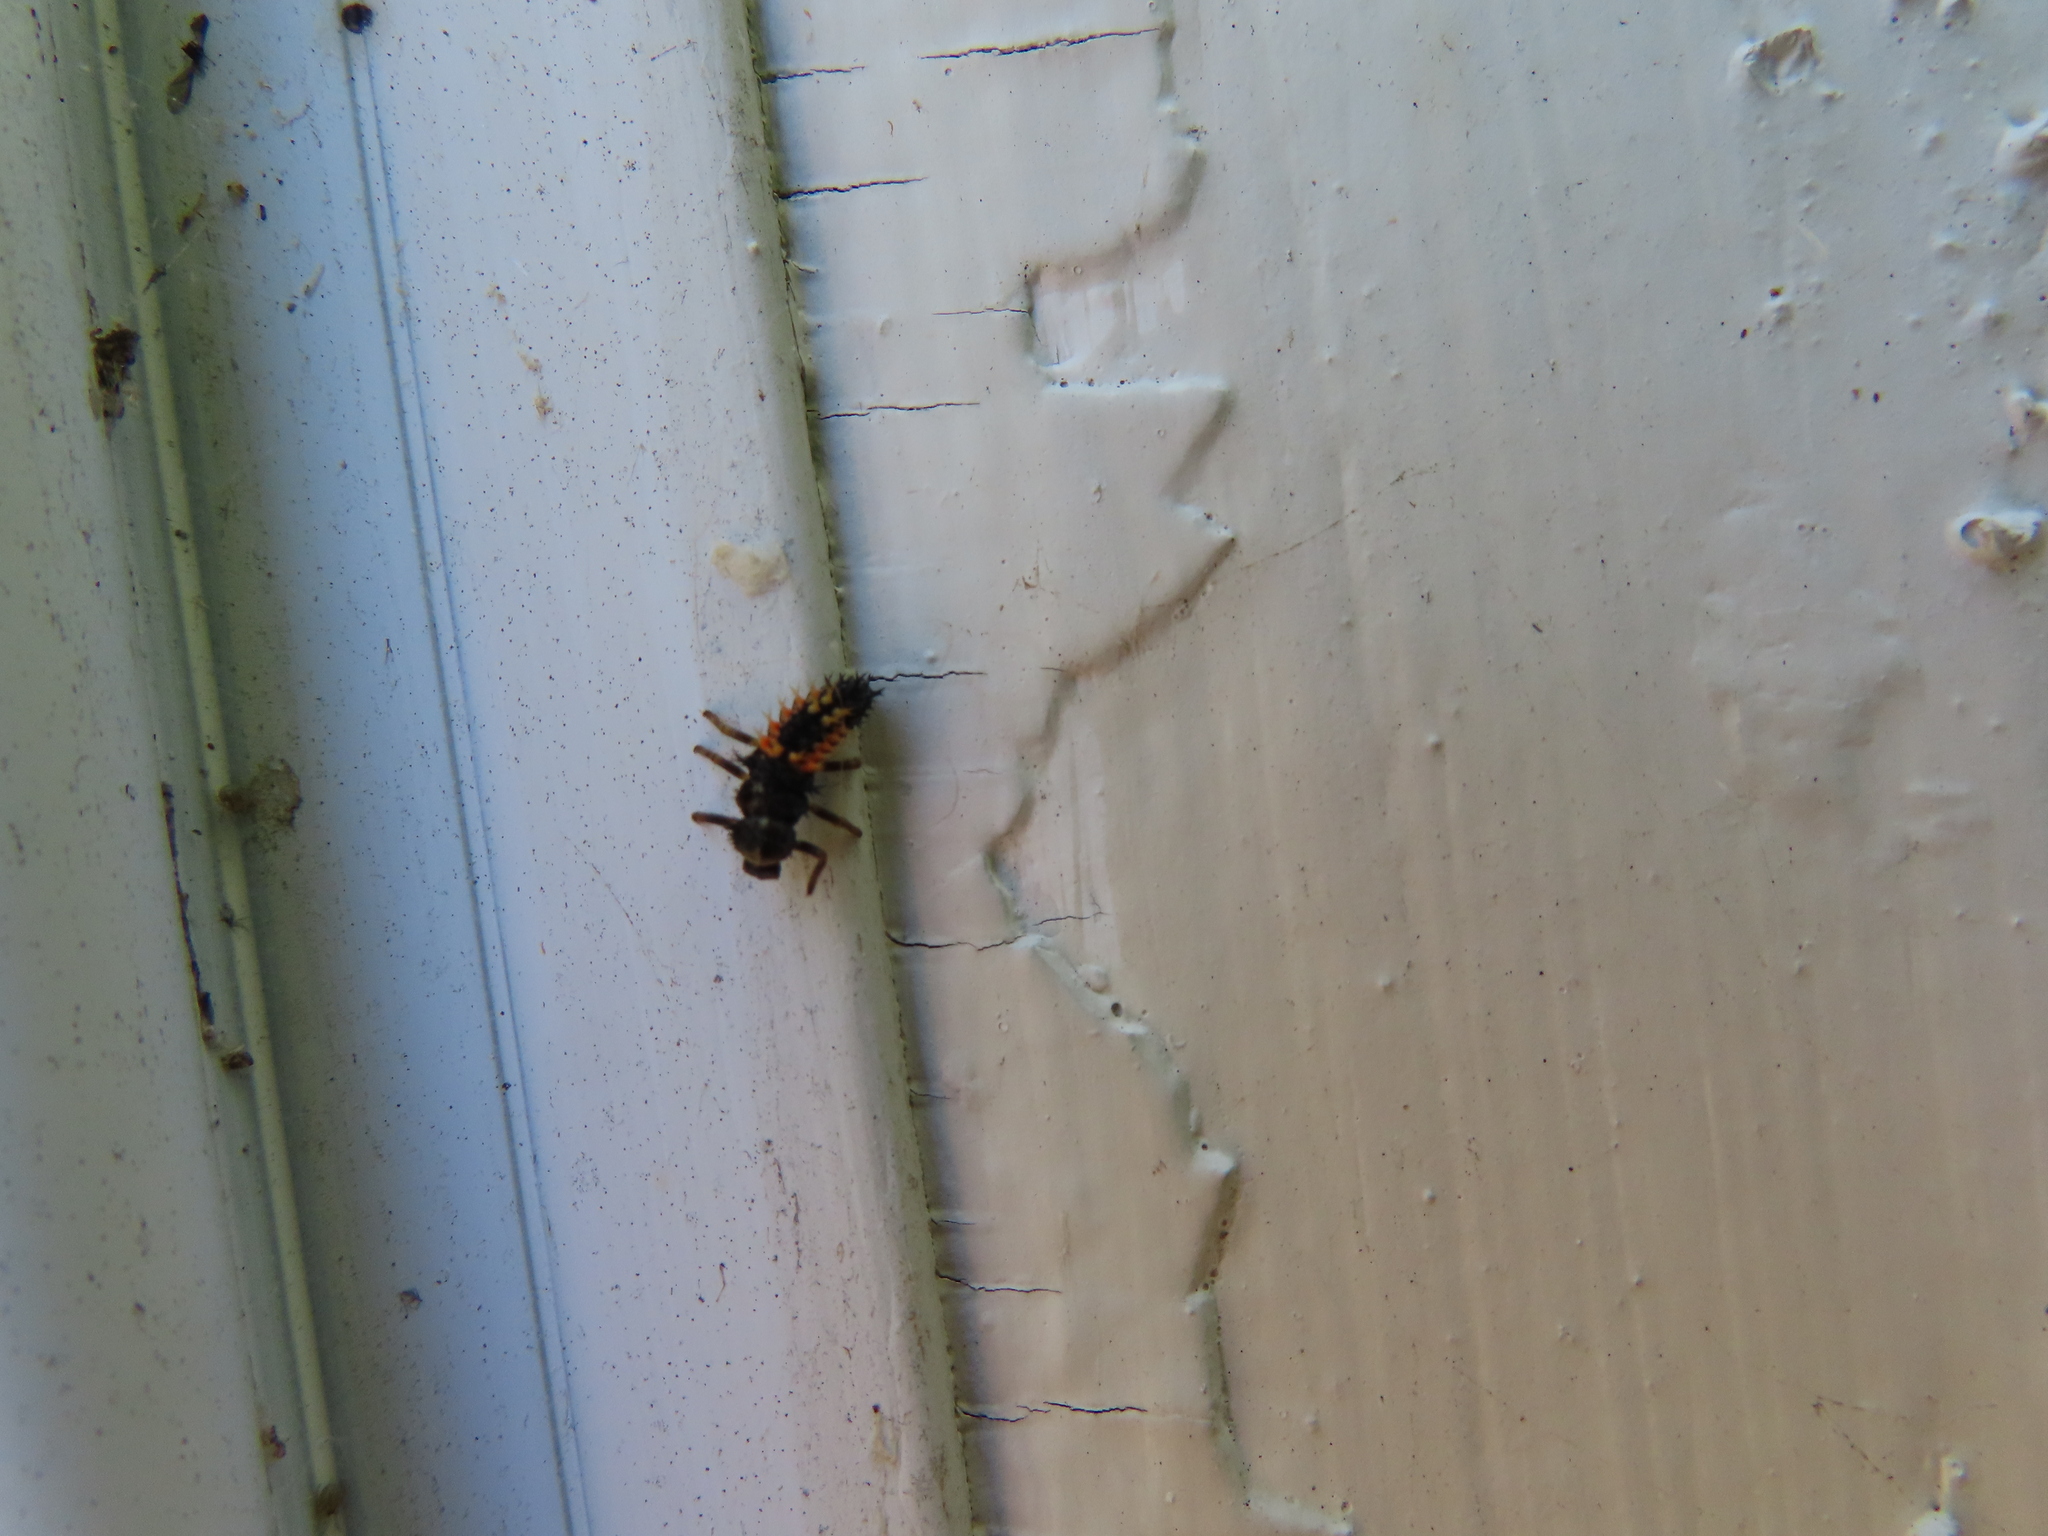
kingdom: Animalia
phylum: Arthropoda
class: Insecta
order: Coleoptera
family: Coccinellidae
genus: Harmonia
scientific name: Harmonia axyridis
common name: Harlequin ladybird
